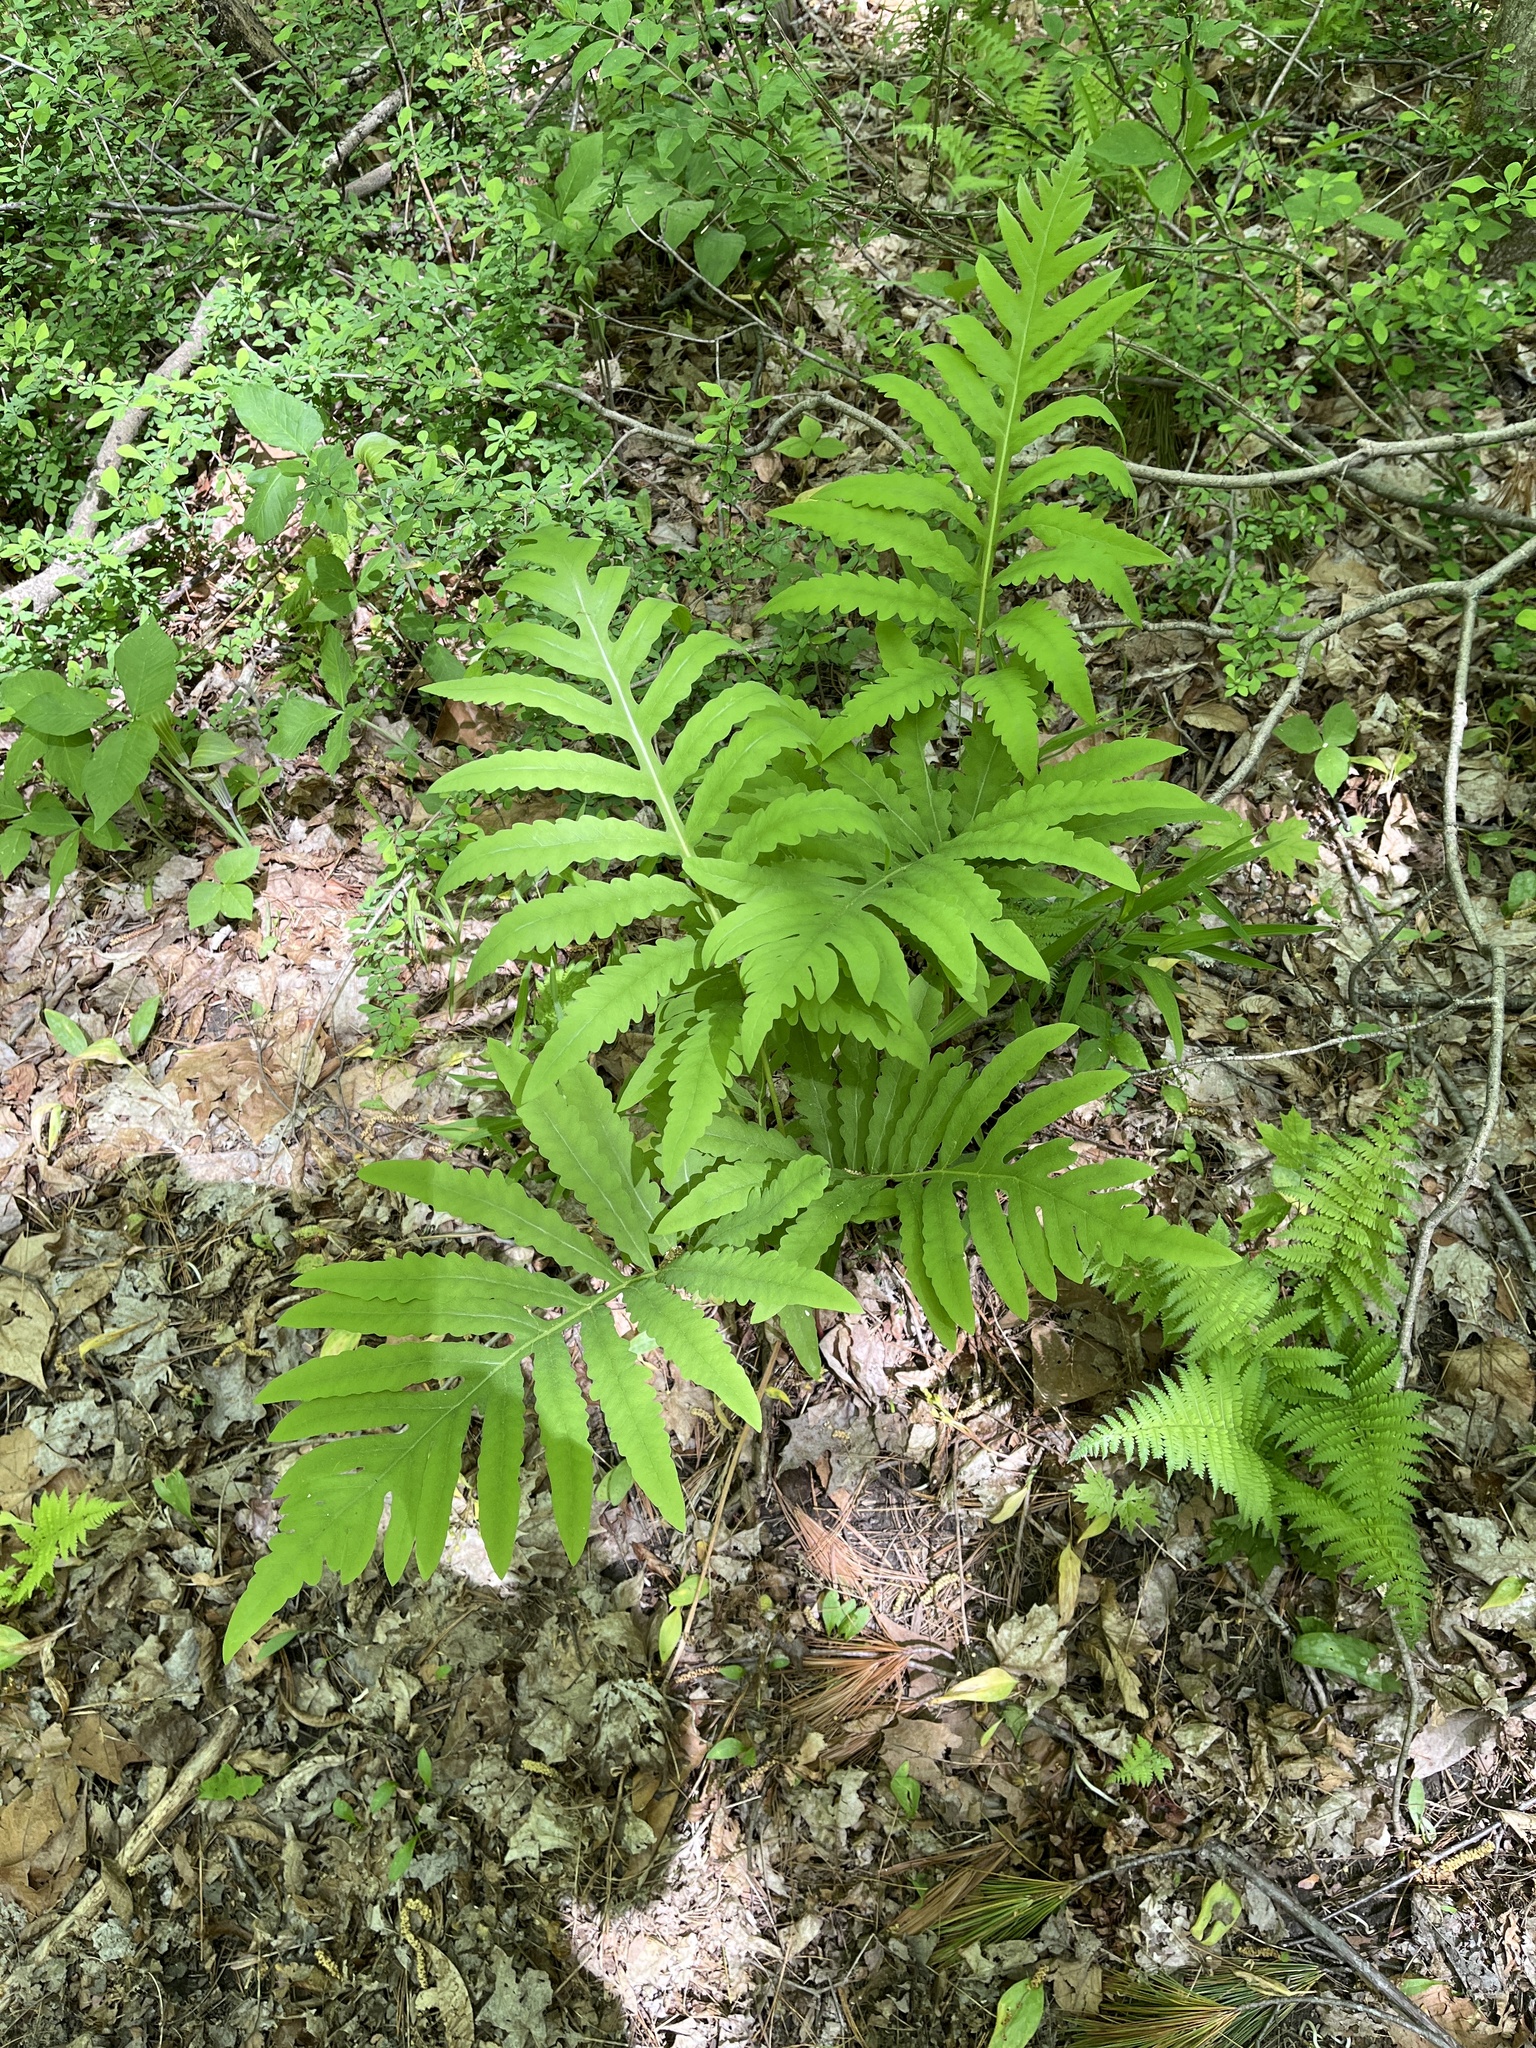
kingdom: Plantae
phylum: Tracheophyta
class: Polypodiopsida
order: Polypodiales
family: Onocleaceae
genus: Onoclea
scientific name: Onoclea sensibilis
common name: Sensitive fern
